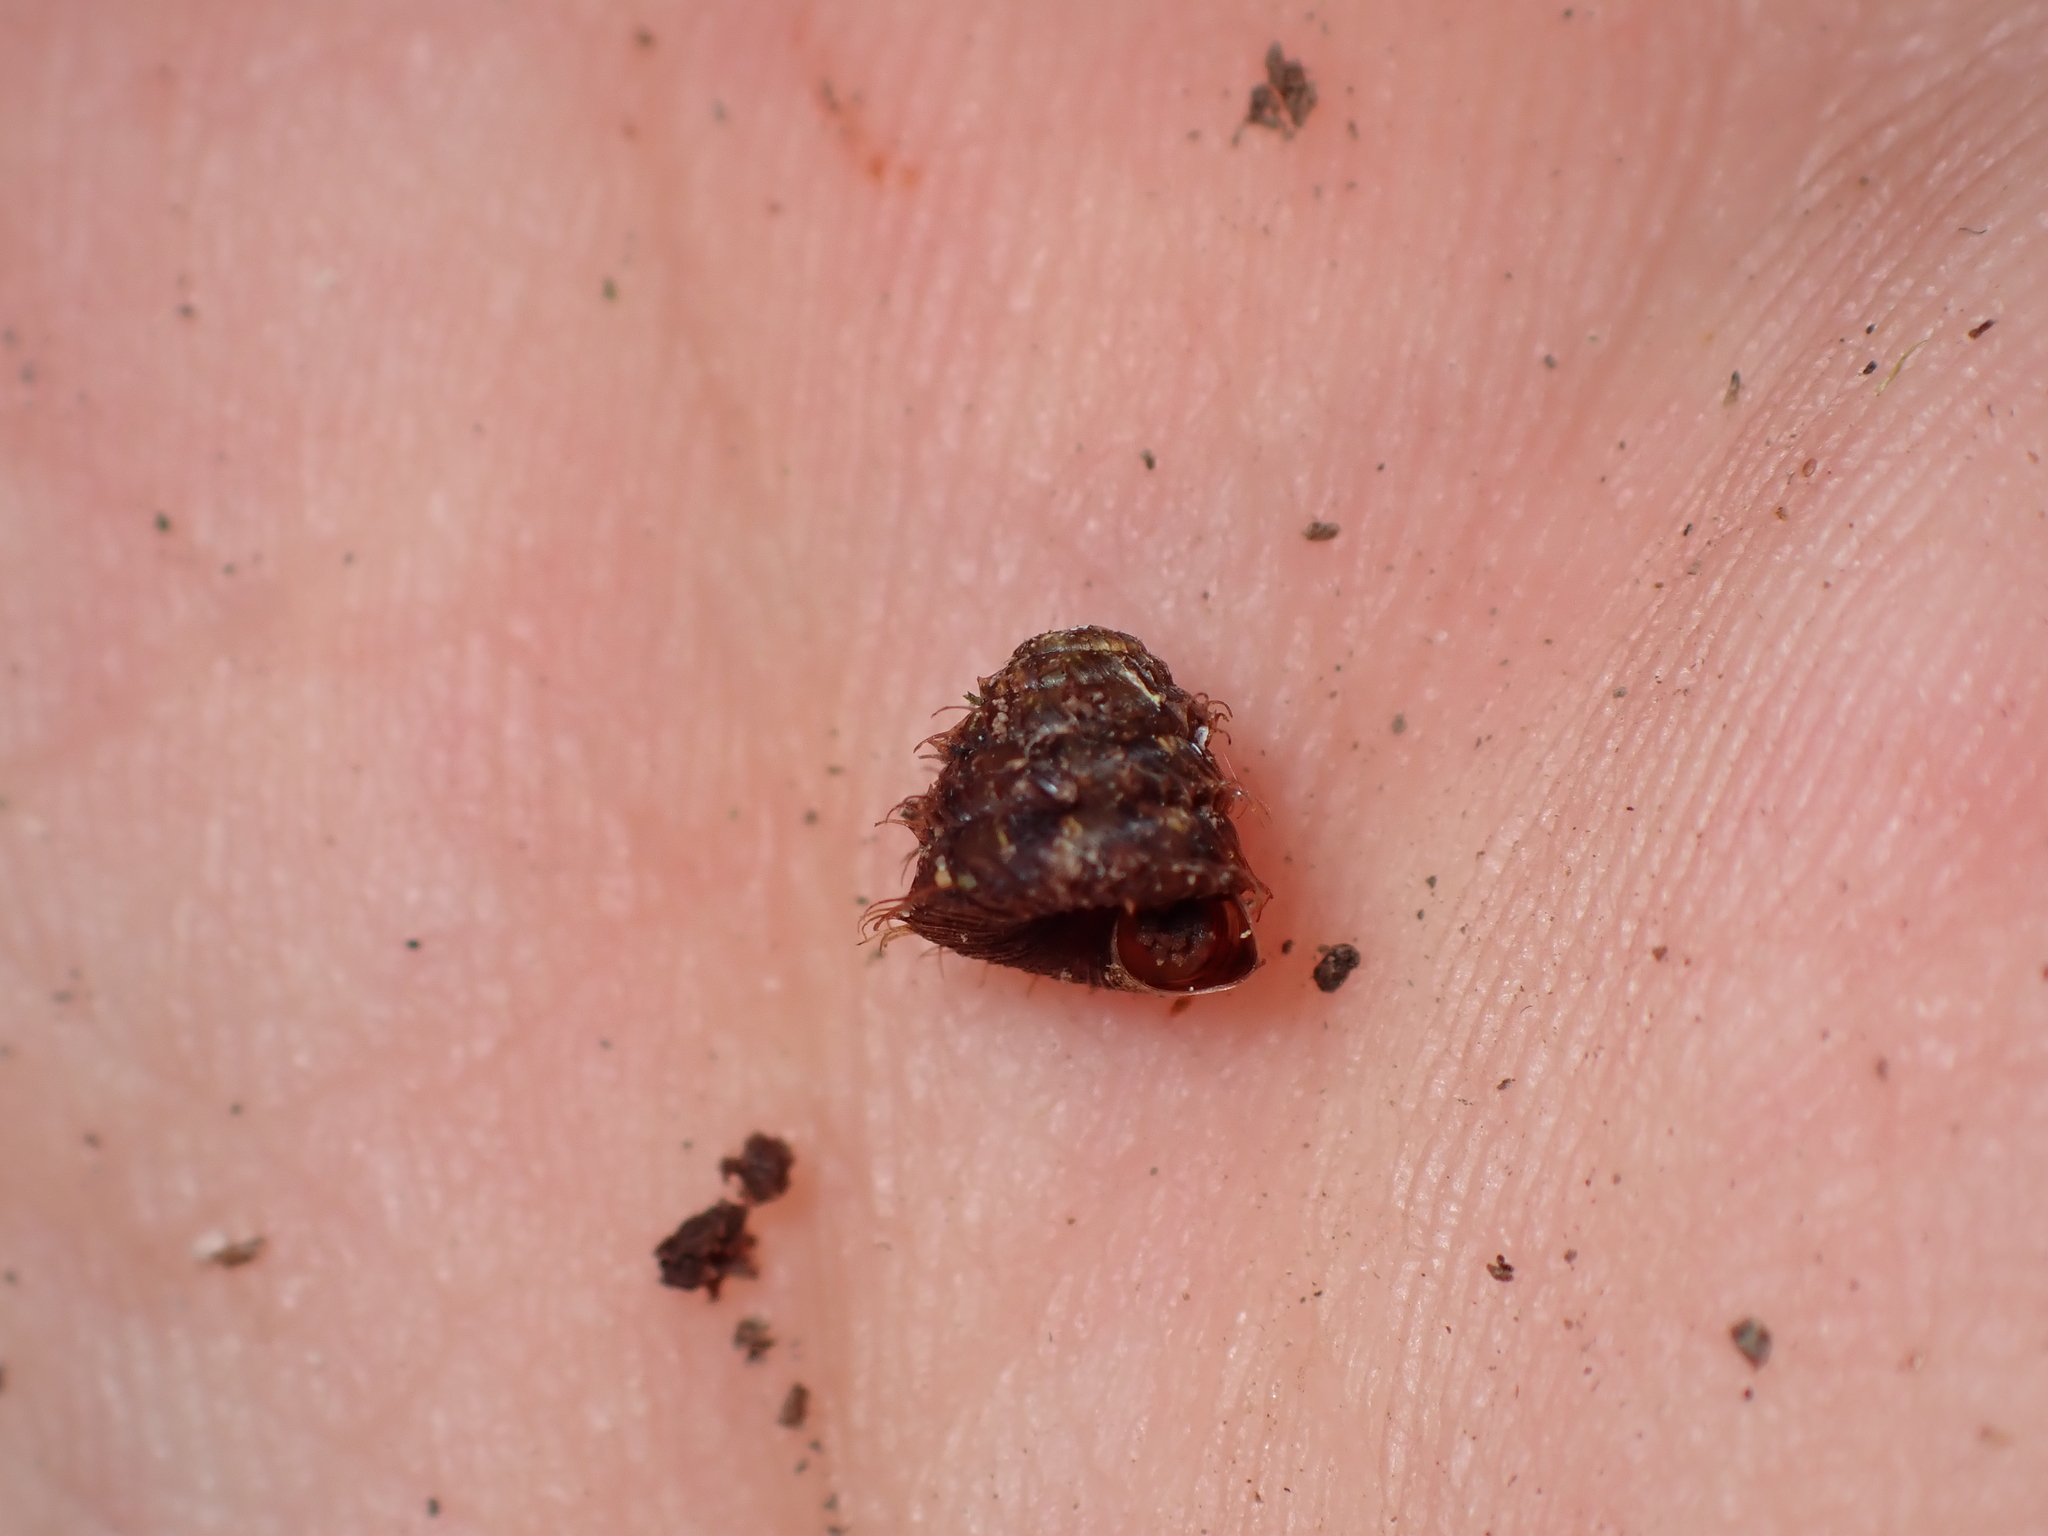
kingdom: Animalia
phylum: Mollusca
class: Gastropoda
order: Stylommatophora
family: Charopidae
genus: Aeschrodomus
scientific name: Aeschrodomus stipulata
